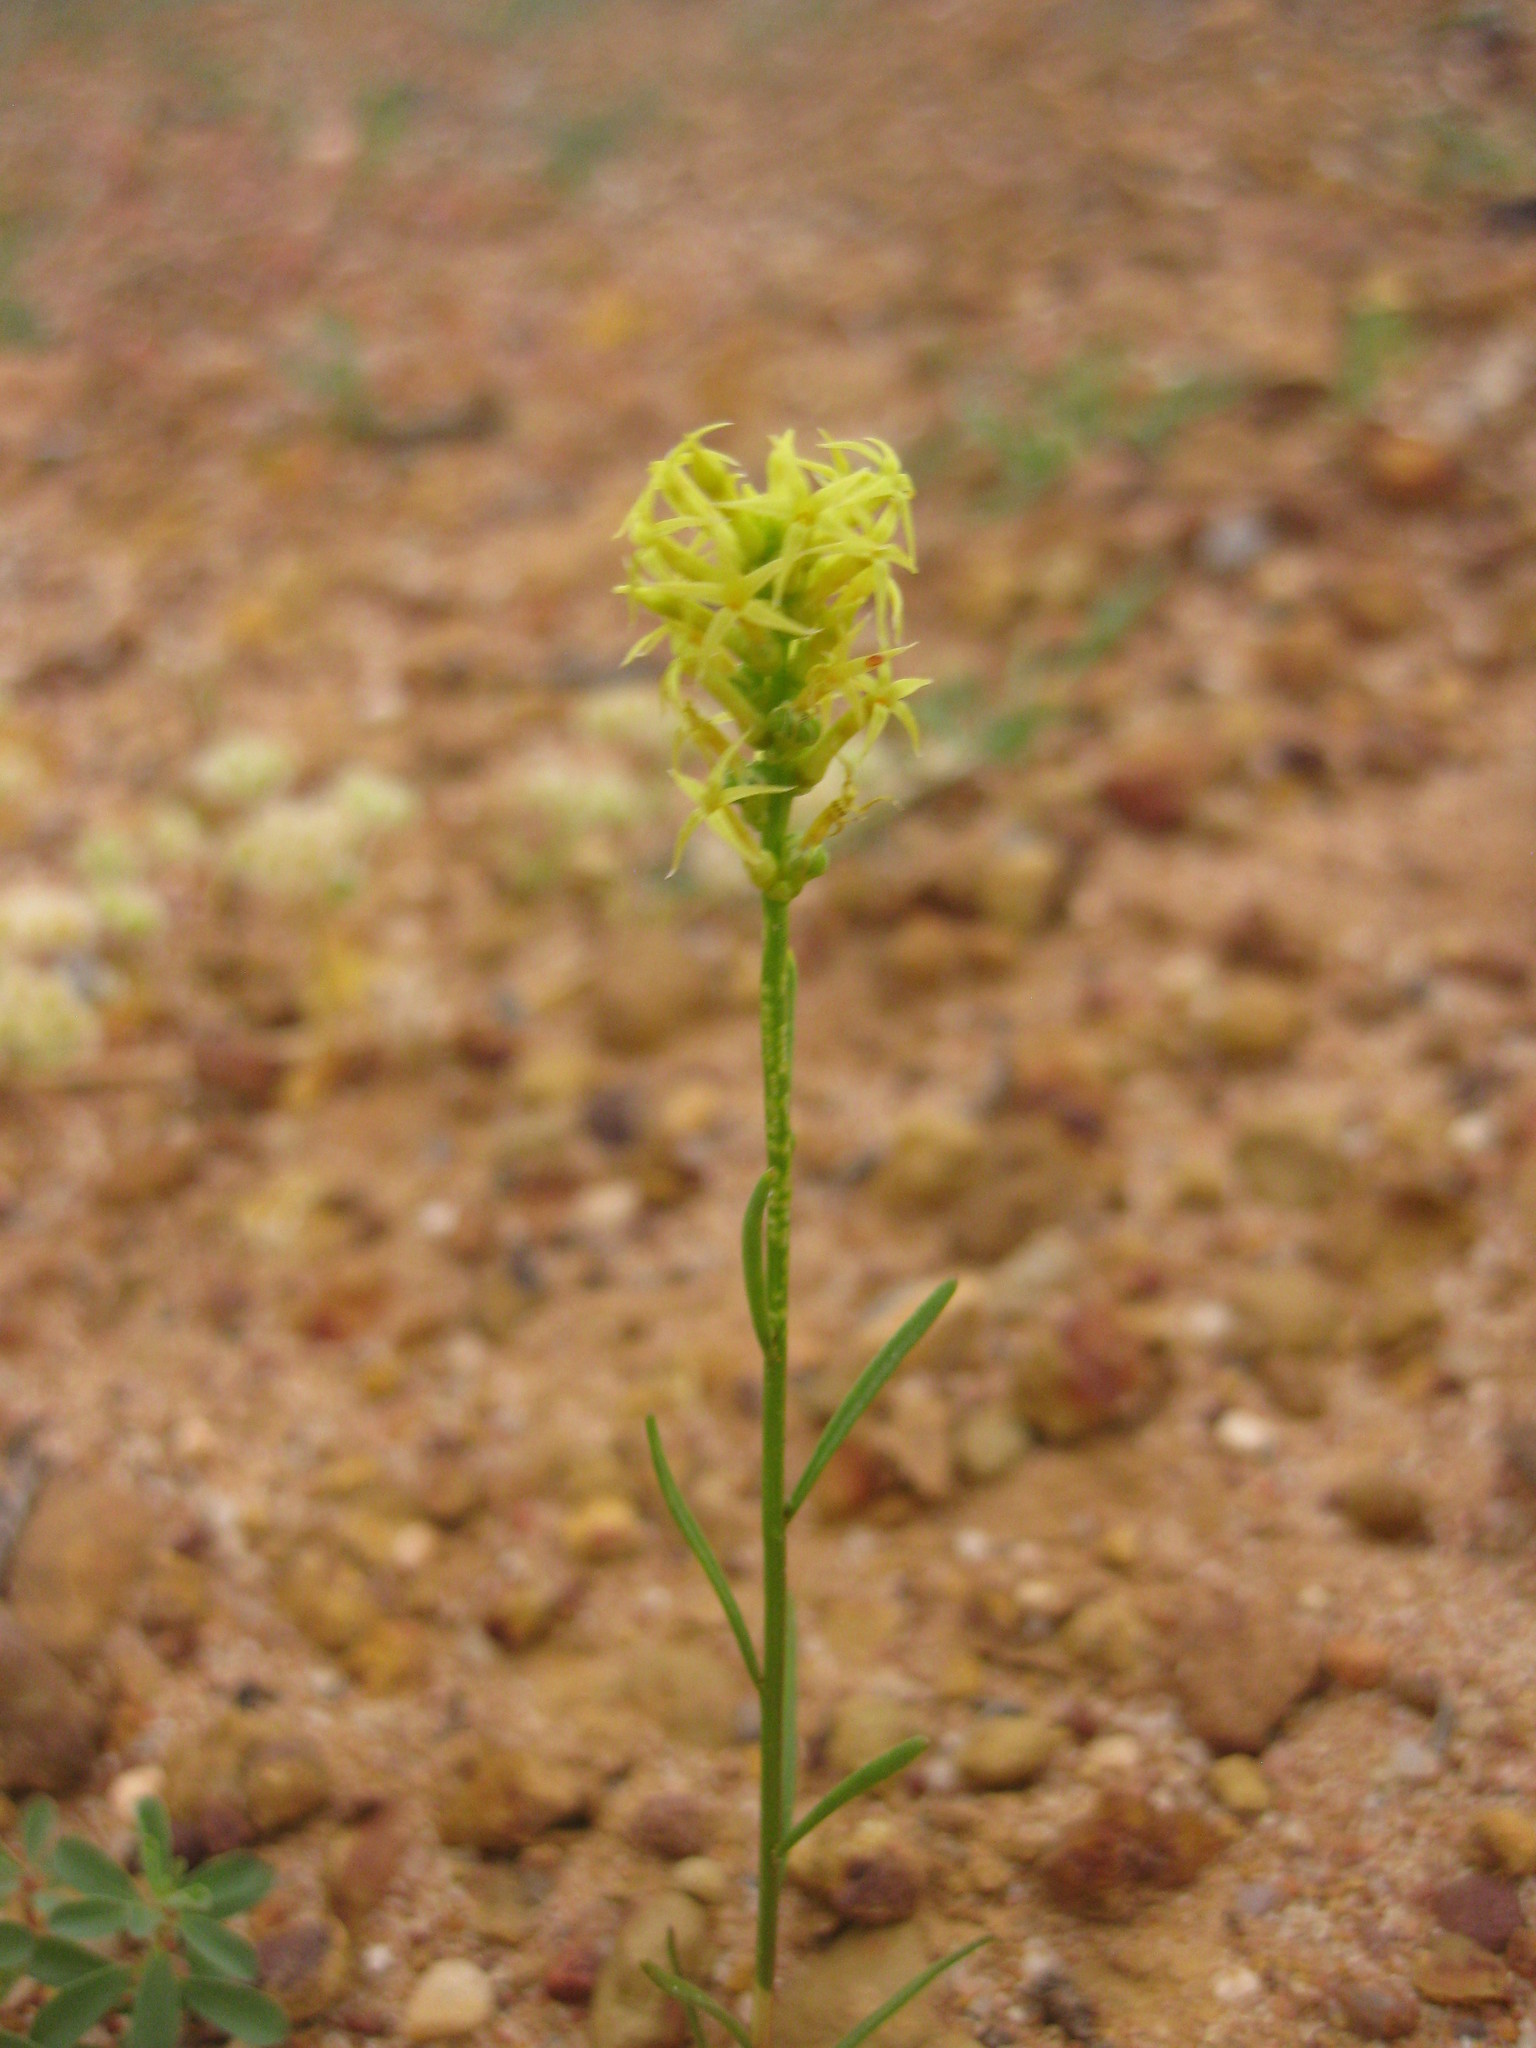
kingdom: Plantae
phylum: Tracheophyta
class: Magnoliopsida
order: Celastrales
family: Celastraceae
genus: Stackhousia
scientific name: Stackhousia dielsii
